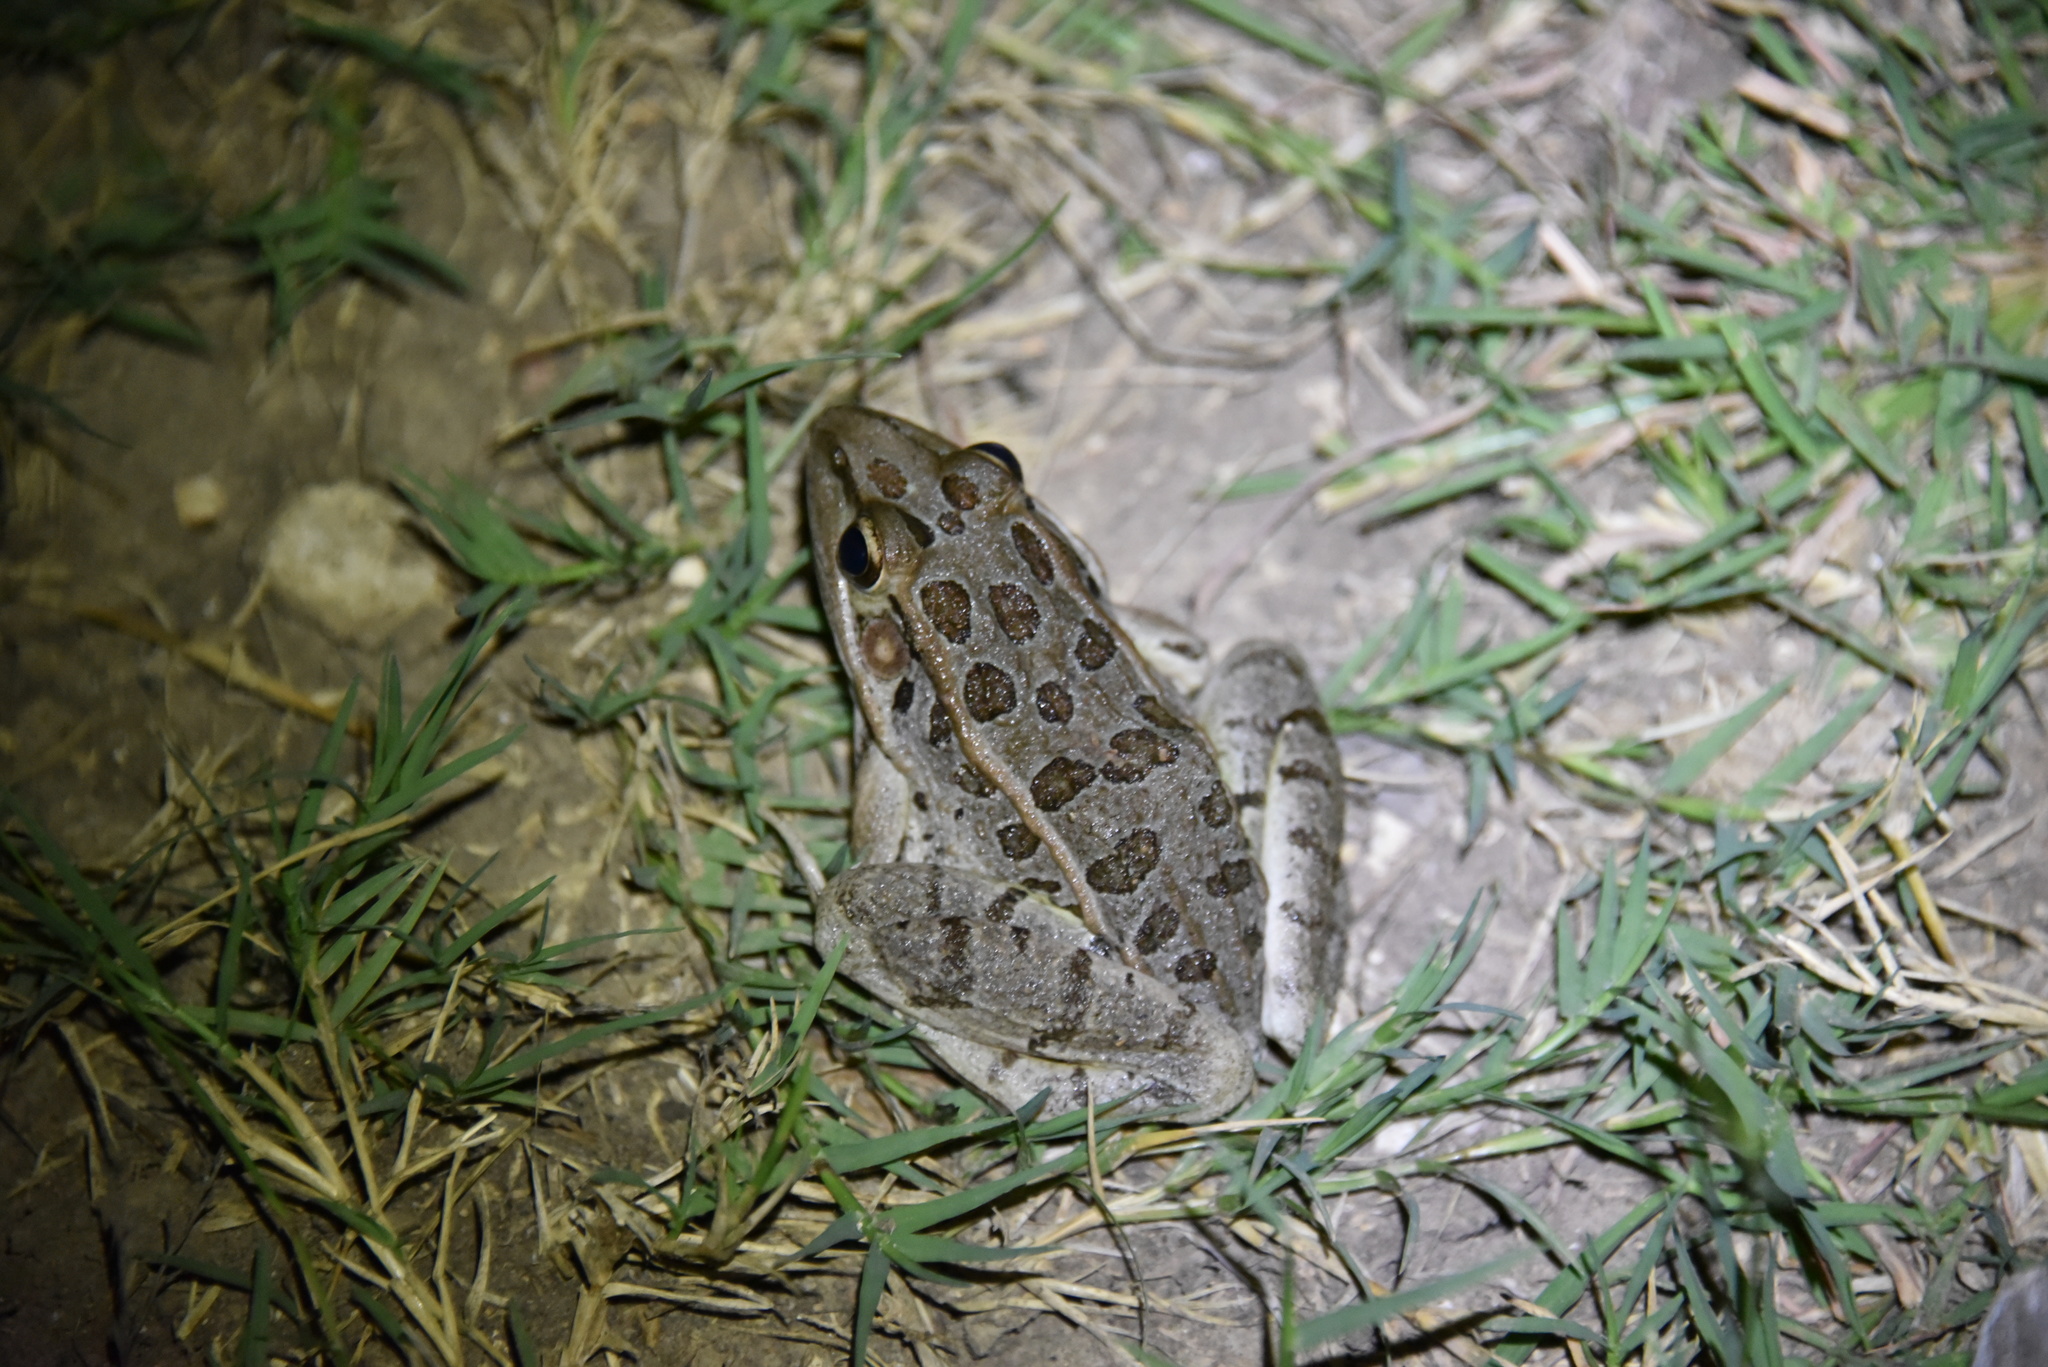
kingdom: Animalia
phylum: Chordata
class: Amphibia
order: Anura
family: Ranidae
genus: Lithobates
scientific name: Lithobates berlandieri
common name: Rio grande leopard frog
